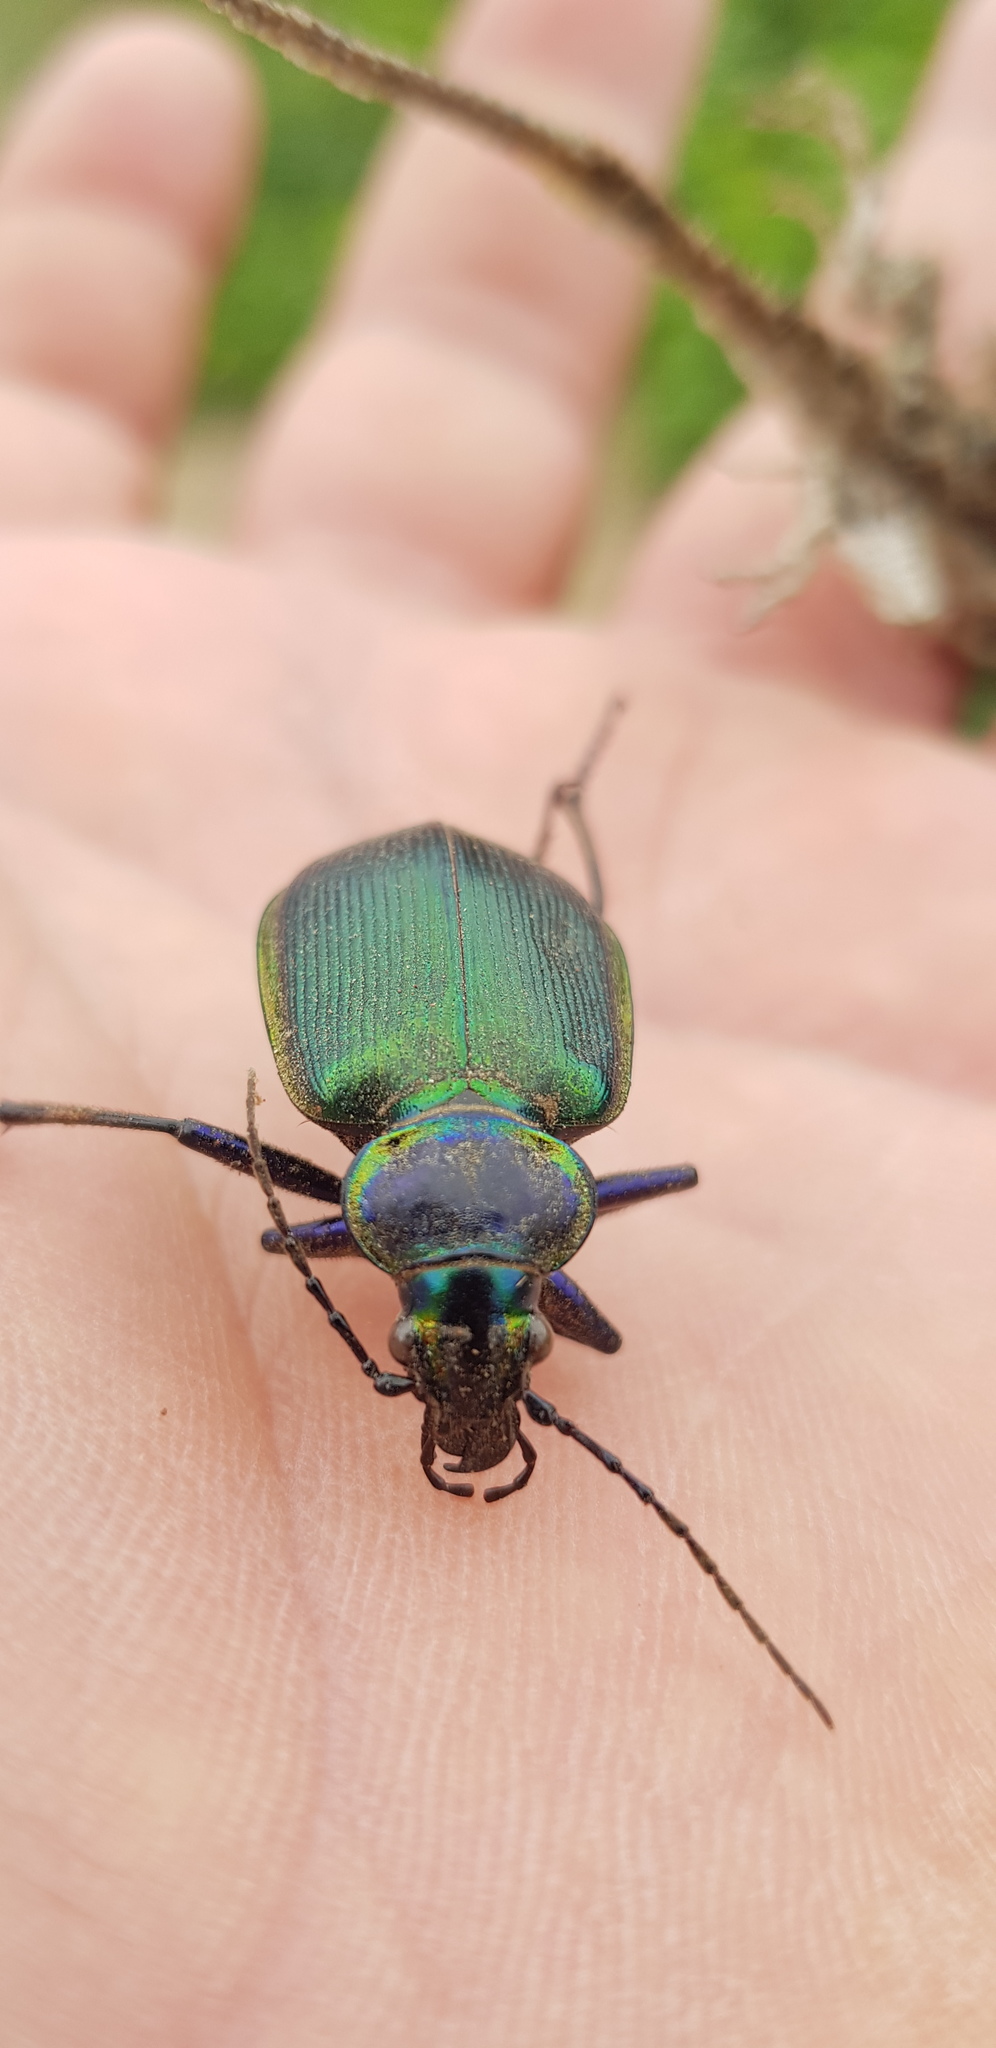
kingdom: Animalia
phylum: Arthropoda
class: Insecta
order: Coleoptera
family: Carabidae
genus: Calosoma
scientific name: Calosoma scrutator
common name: Fiery searcher beetle
